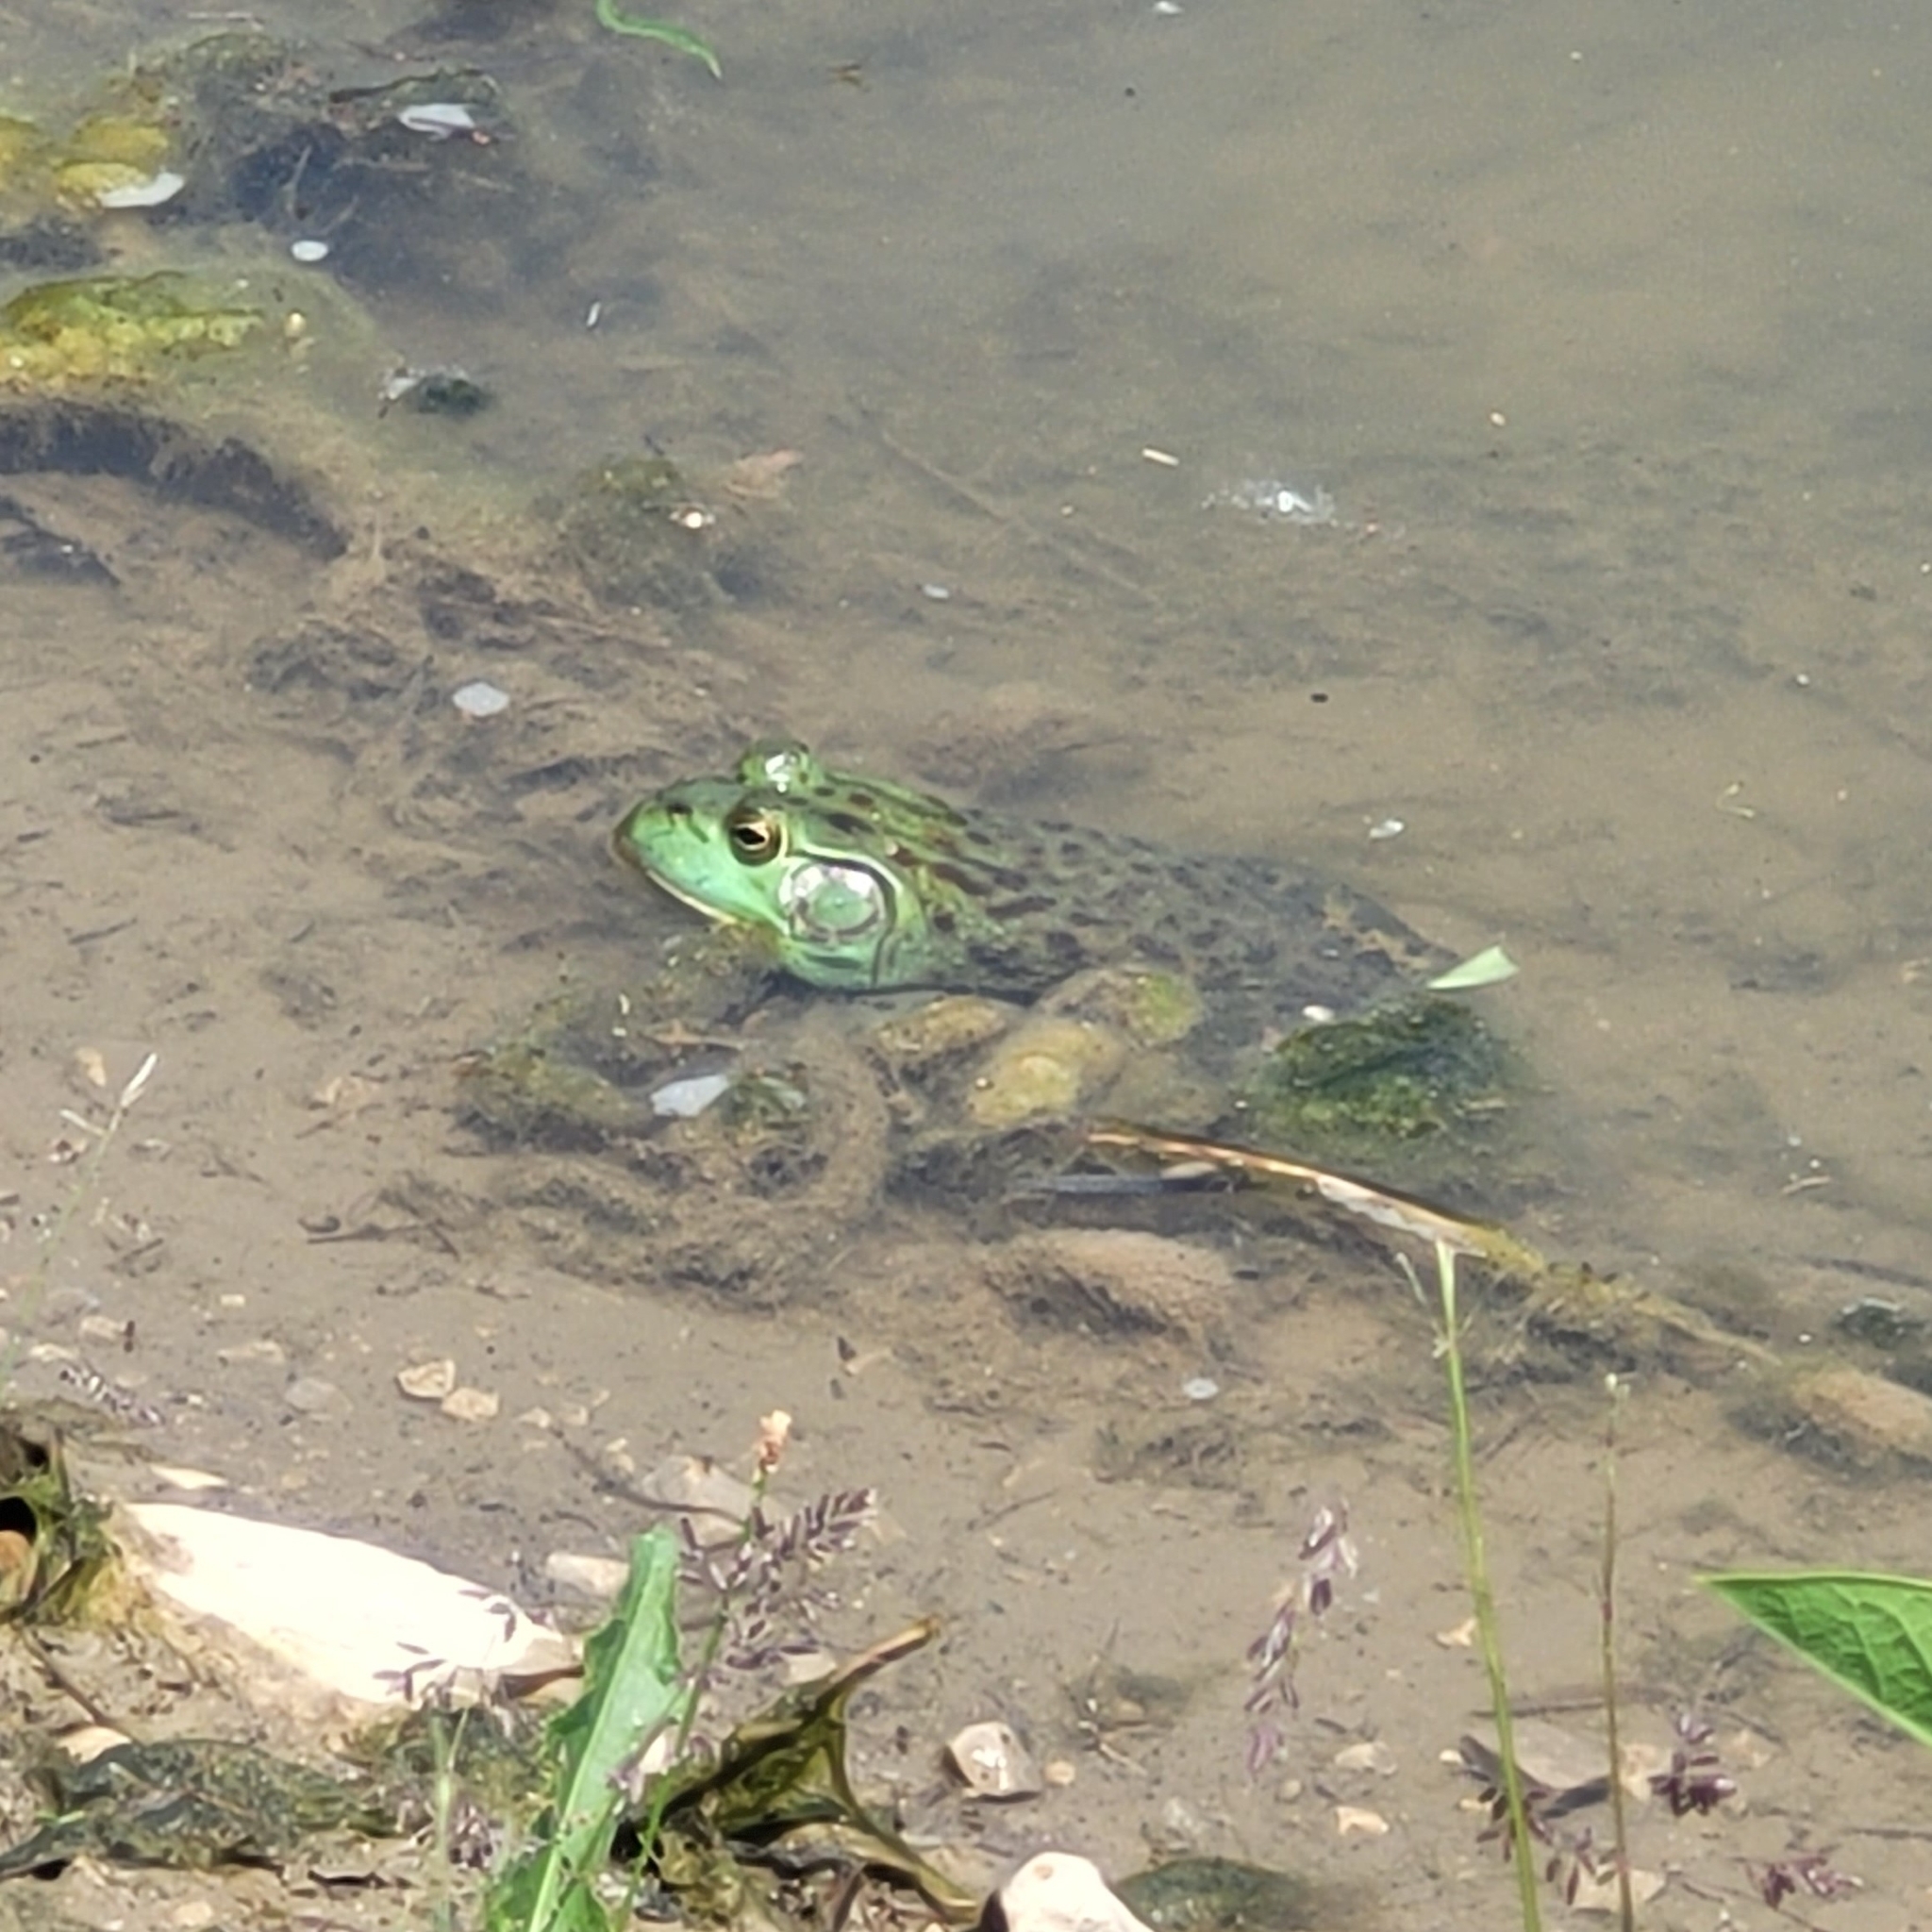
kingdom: Animalia
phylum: Chordata
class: Amphibia
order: Anura
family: Ranidae
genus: Lithobates
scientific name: Lithobates catesbeianus
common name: American bullfrog
